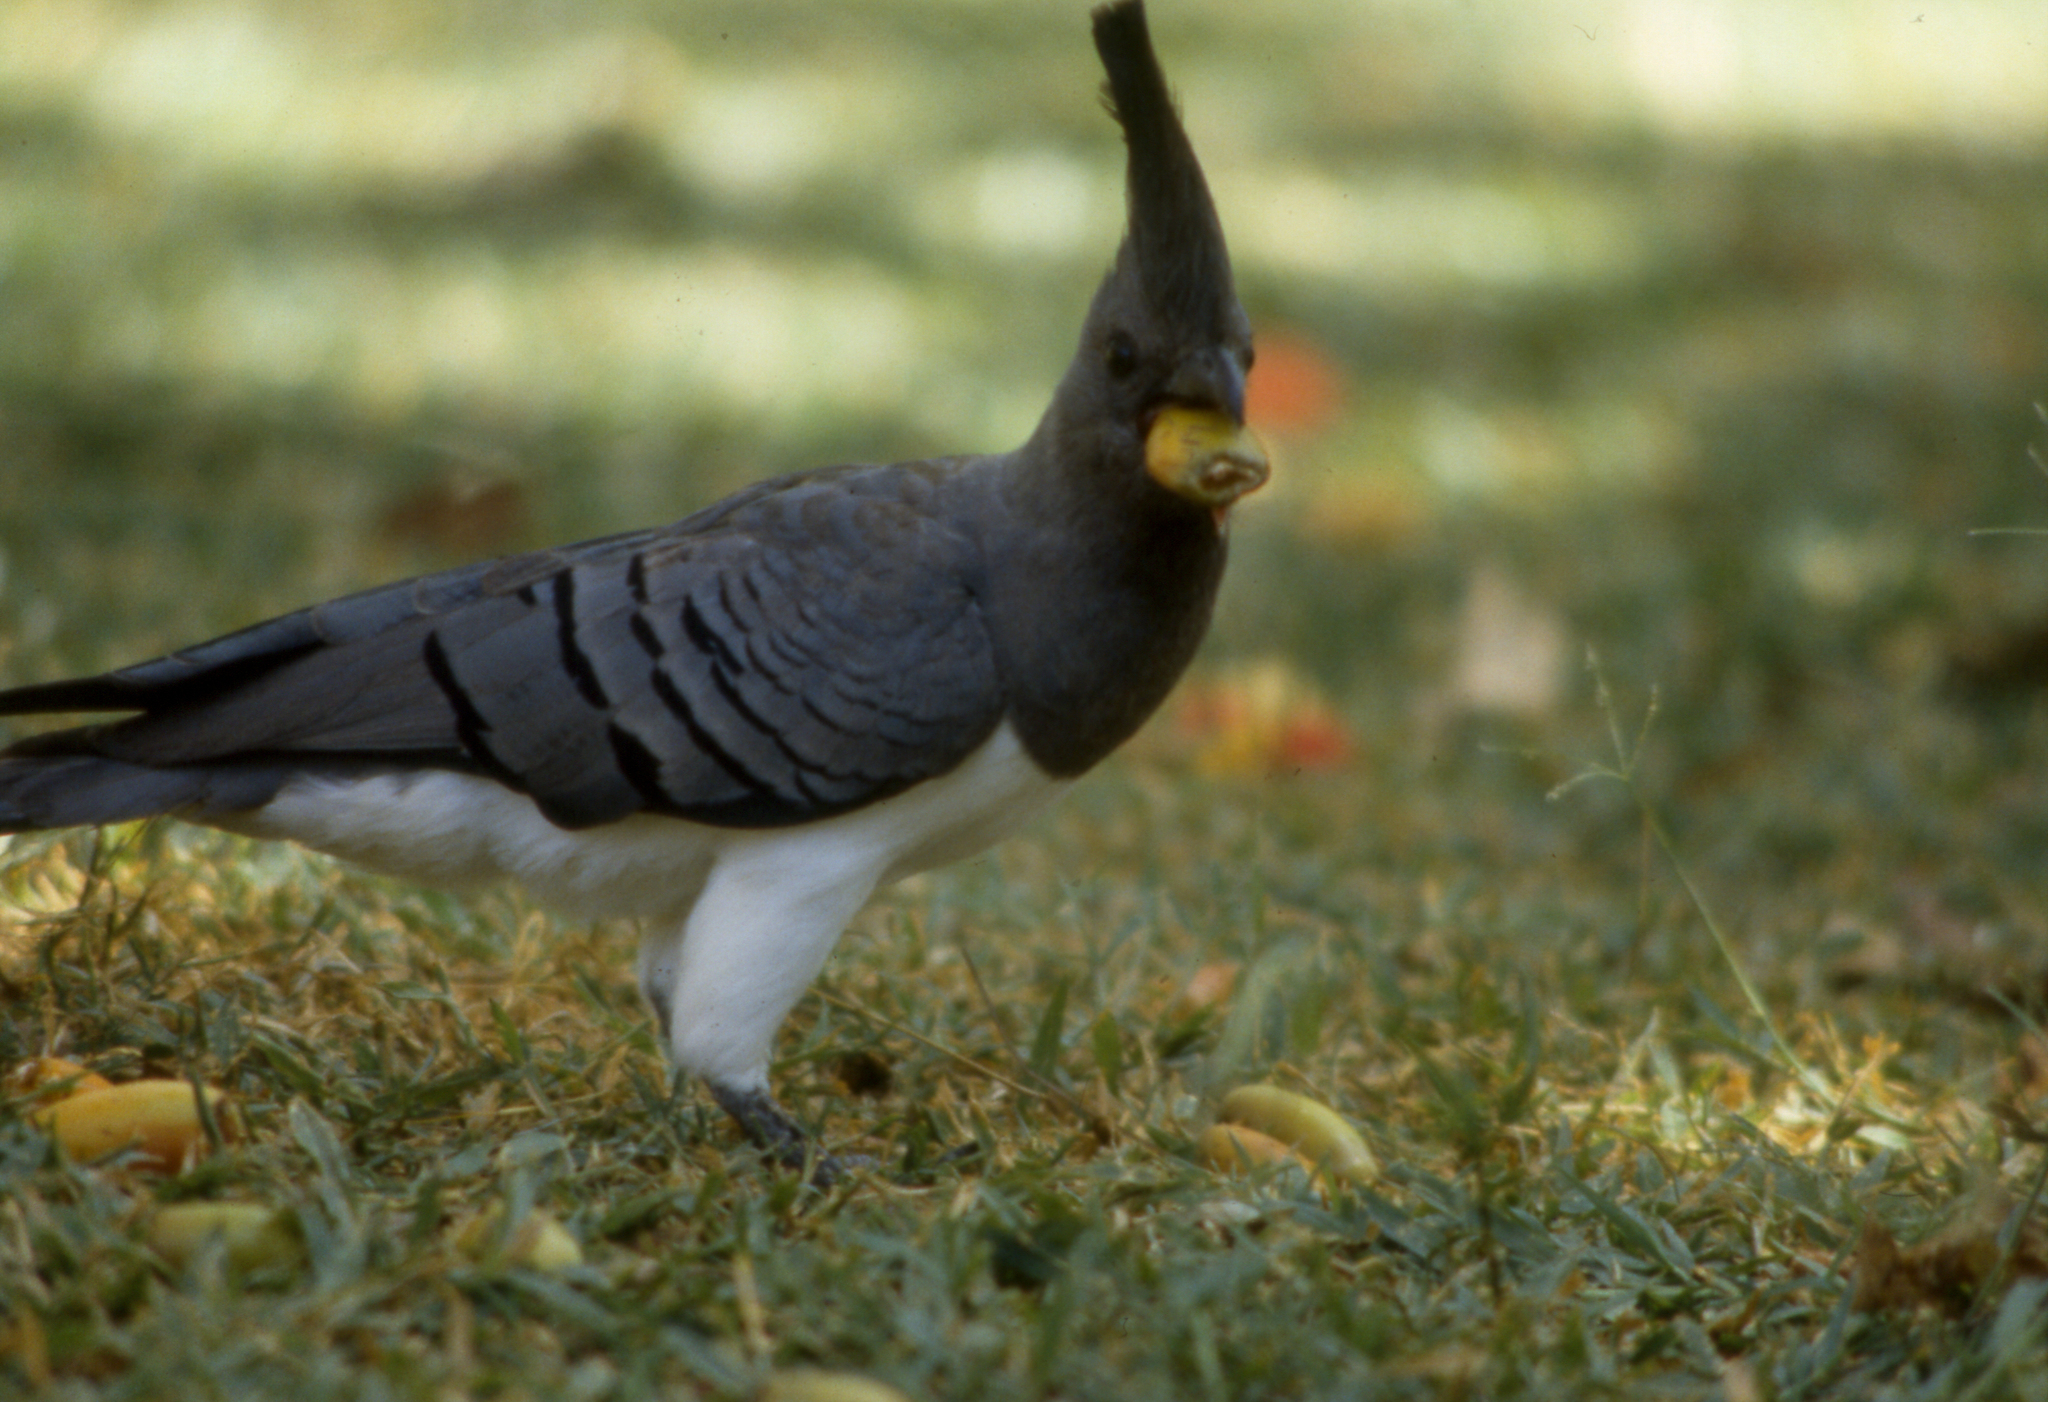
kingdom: Animalia
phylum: Chordata
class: Aves
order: Musophagiformes
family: Musophagidae
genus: Corythaixoides
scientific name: Corythaixoides leucogaster
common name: White-bellied go-away-bird
